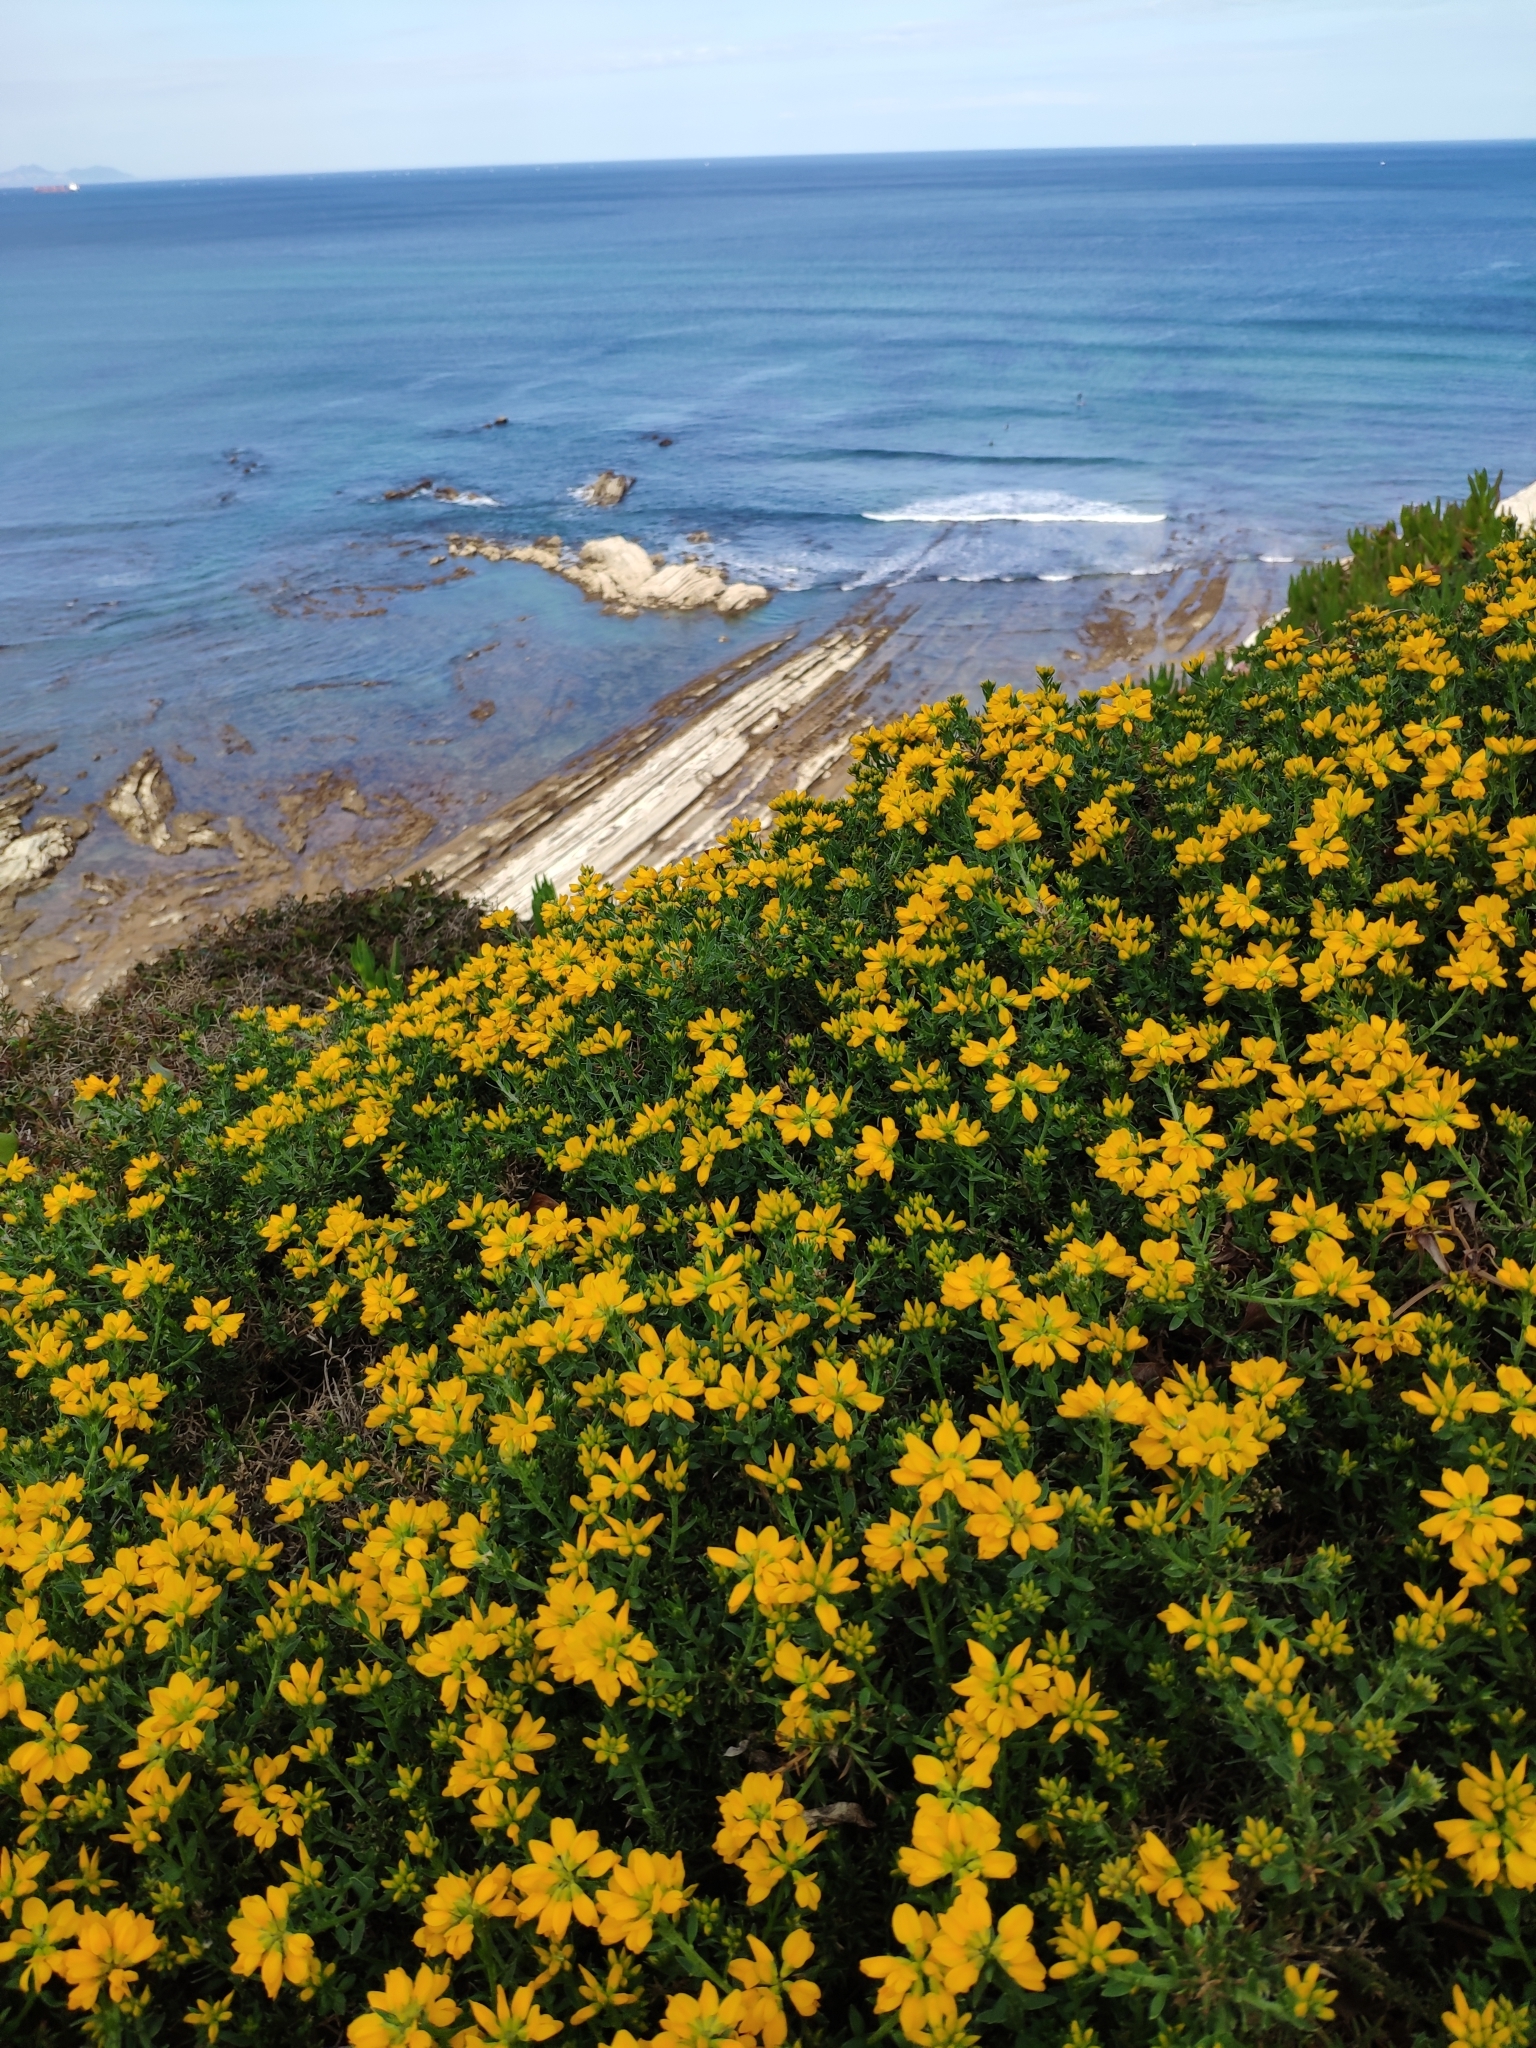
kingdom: Plantae
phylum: Tracheophyta
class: Magnoliopsida
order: Fabales
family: Fabaceae
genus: Genista
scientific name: Genista hispanica
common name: Spanish gorse
